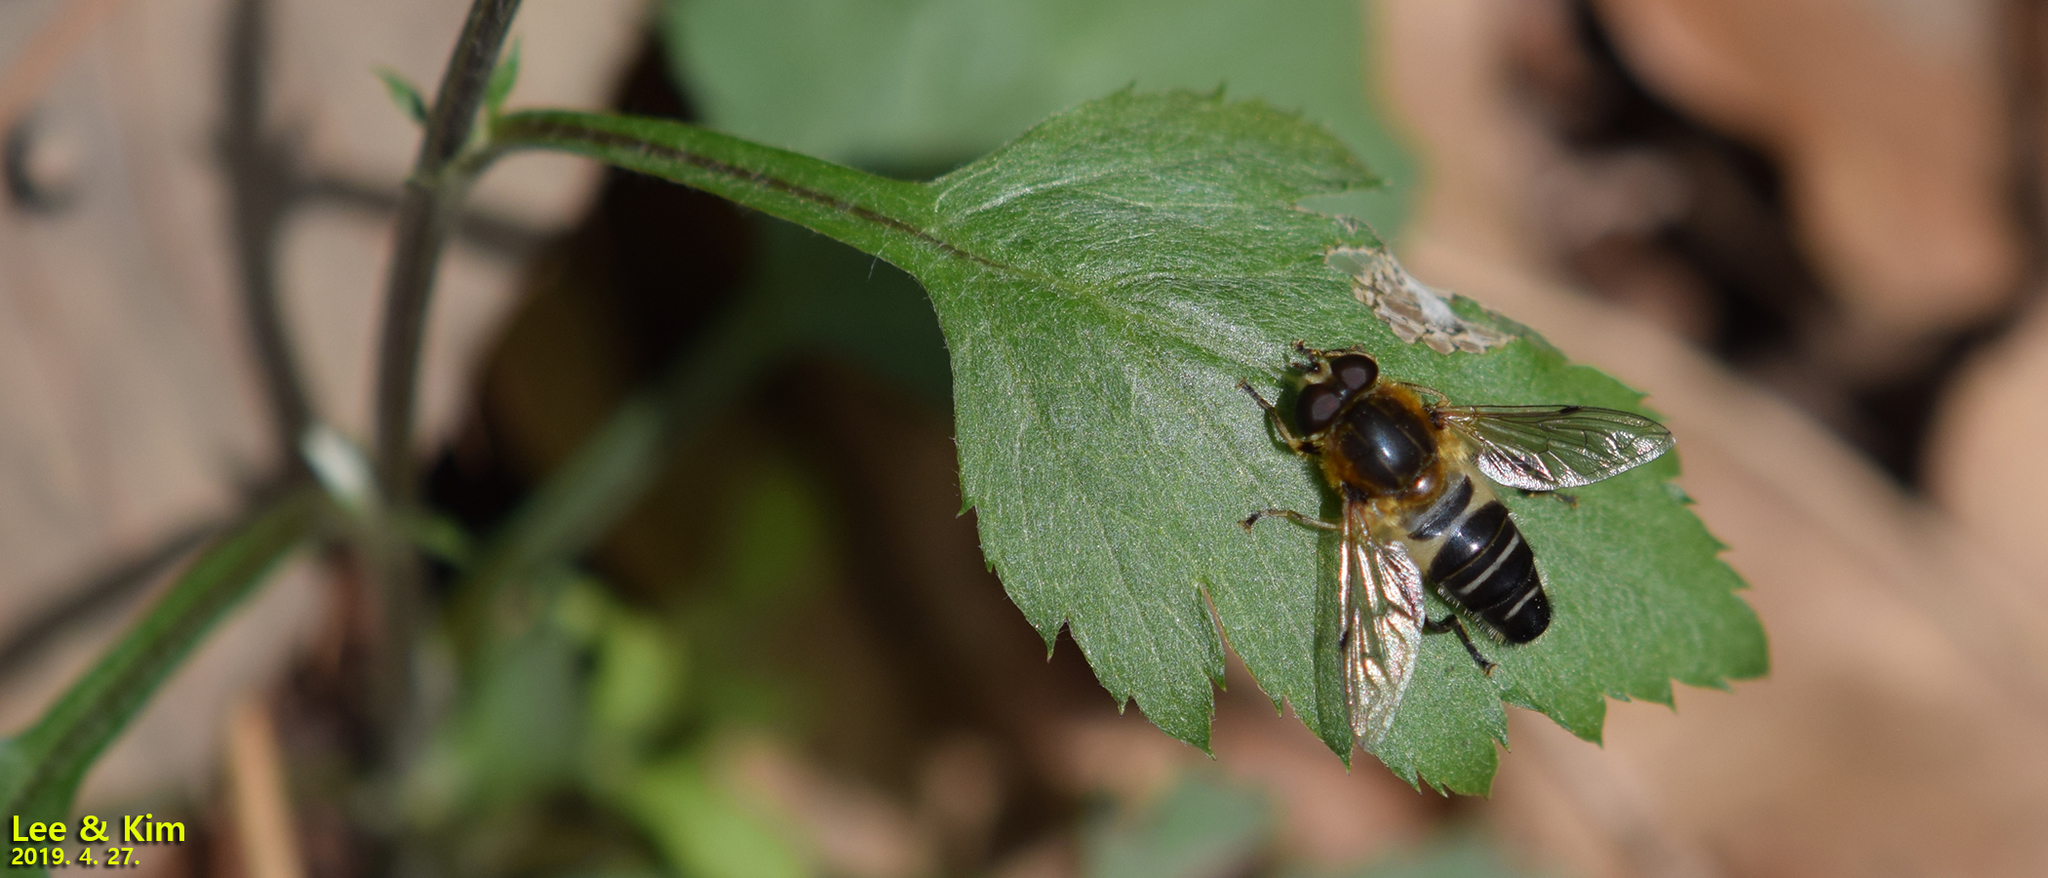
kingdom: Animalia
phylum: Arthropoda
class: Insecta
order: Diptera
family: Syrphidae
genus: Helophilus
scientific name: Helophilus eristaloideus
